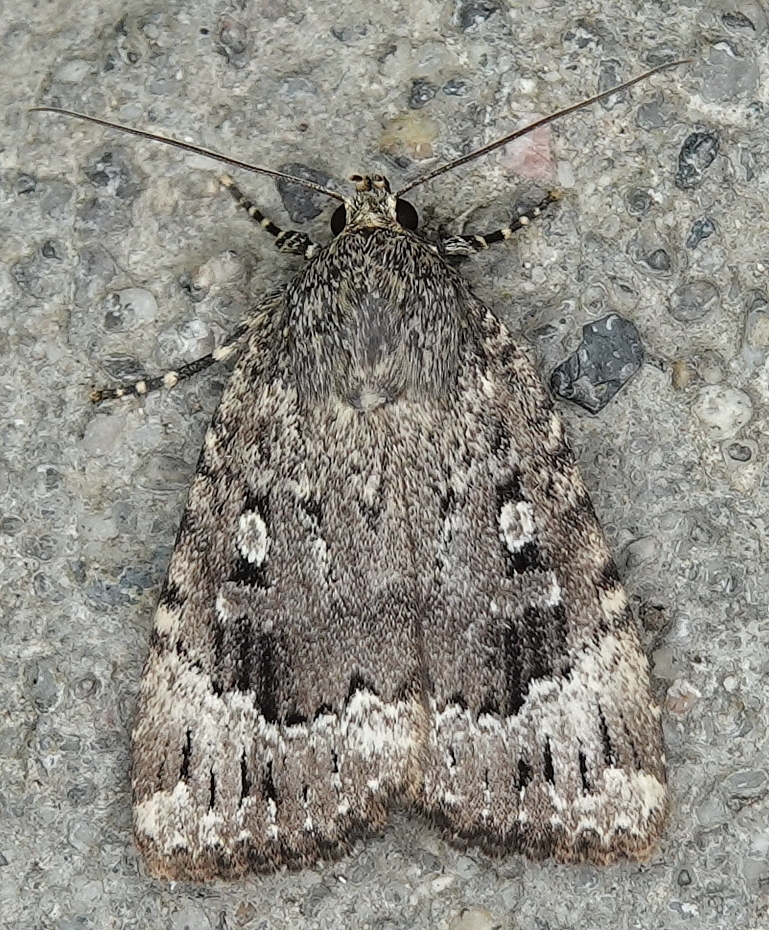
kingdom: Animalia
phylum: Arthropoda
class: Insecta
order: Lepidoptera
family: Noctuidae
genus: Amphipyra
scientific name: Amphipyra pyramidoides
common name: American copper underwing
